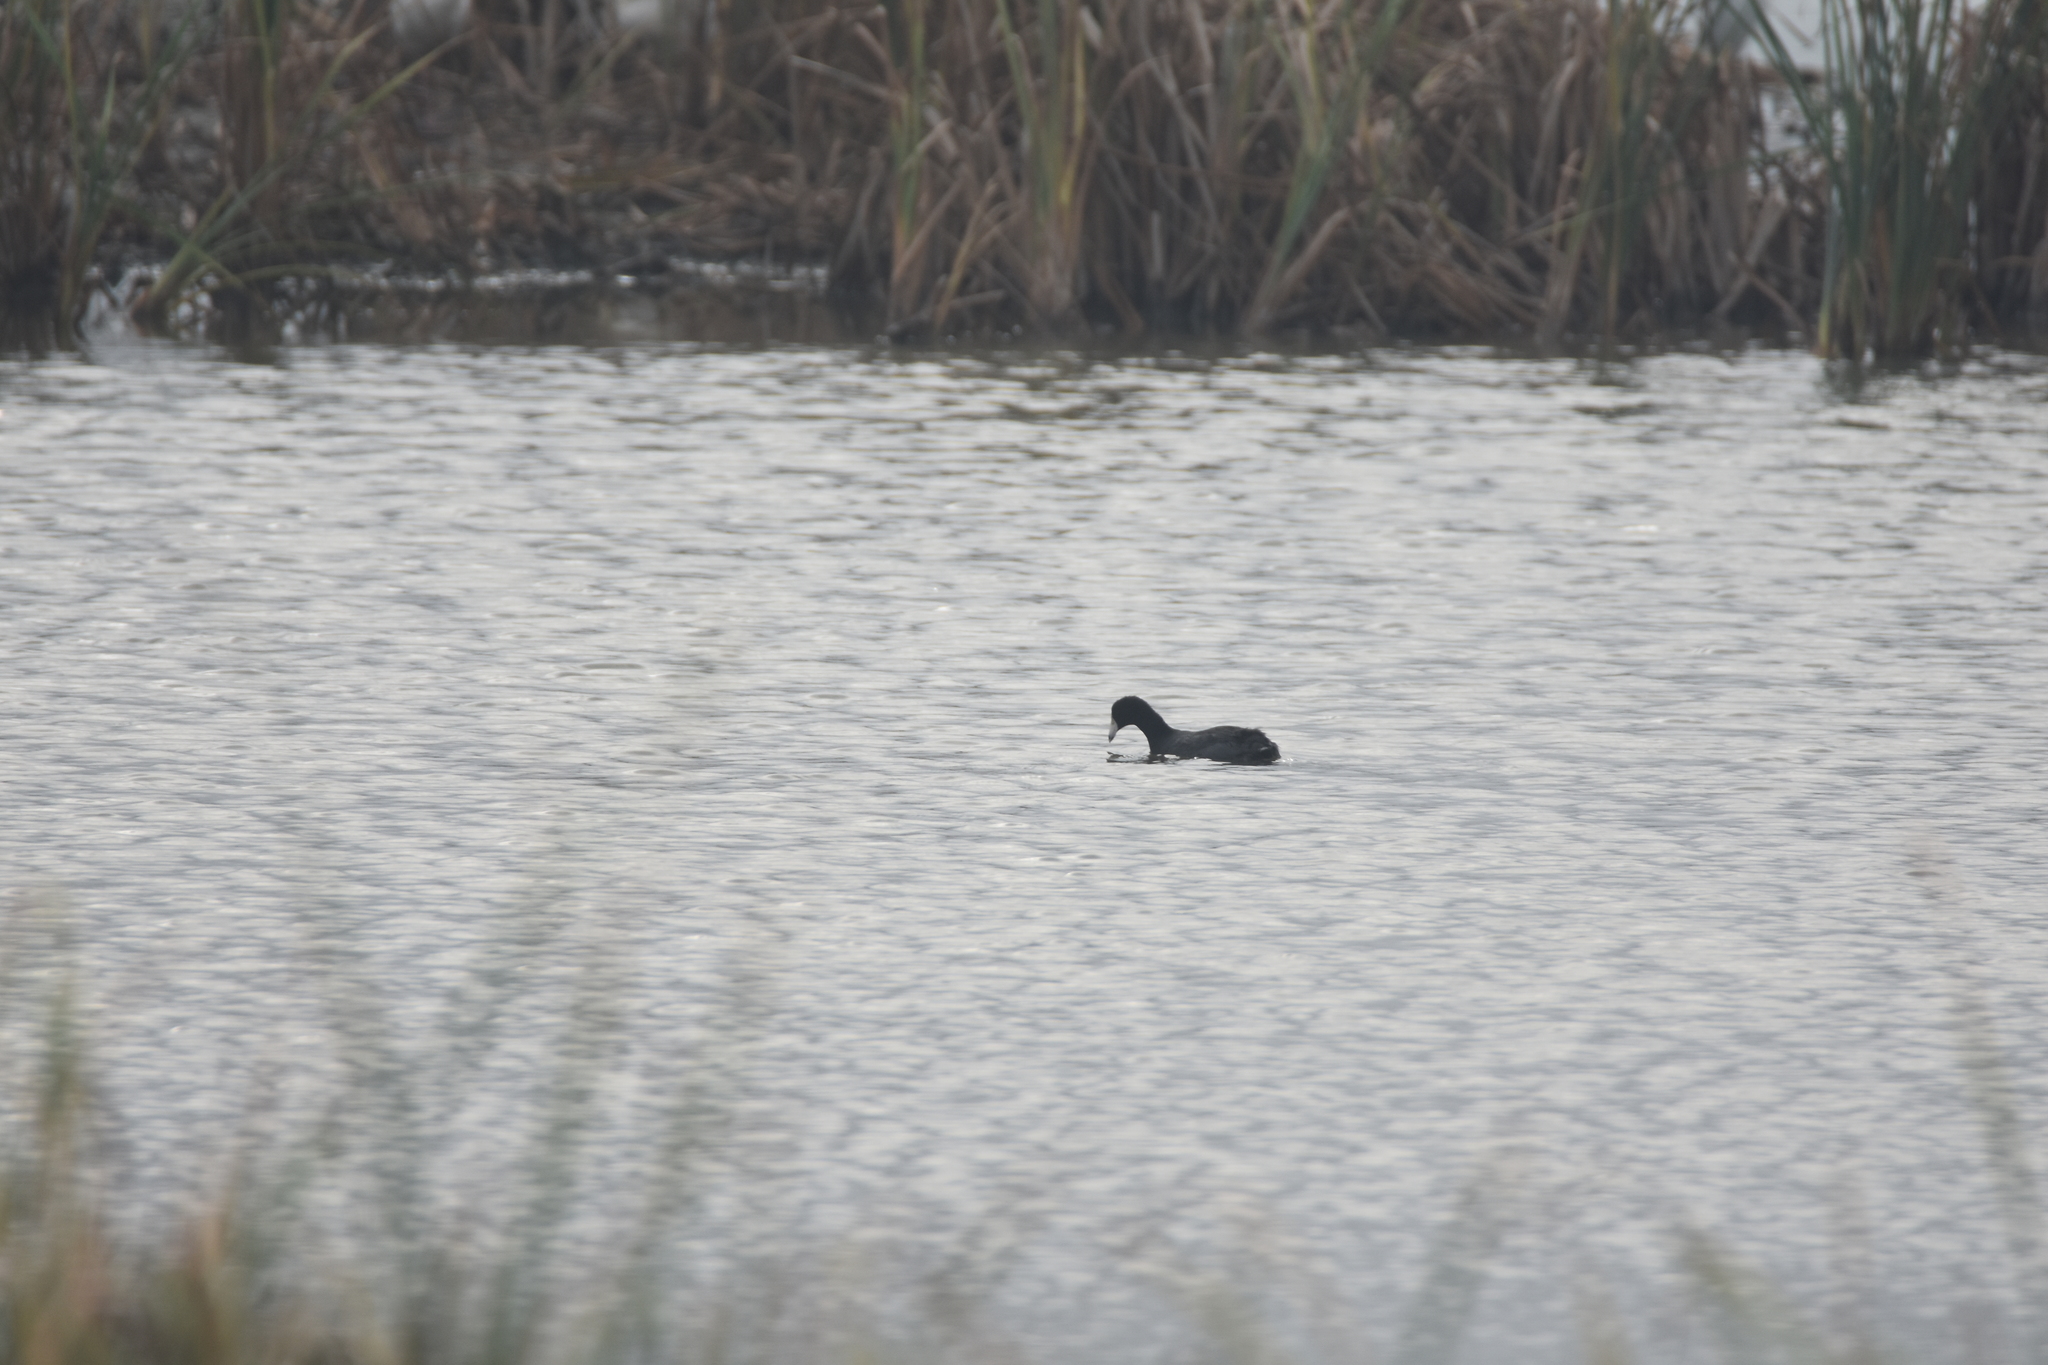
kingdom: Animalia
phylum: Chordata
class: Aves
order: Gruiformes
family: Rallidae
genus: Fulica
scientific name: Fulica americana
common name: American coot
